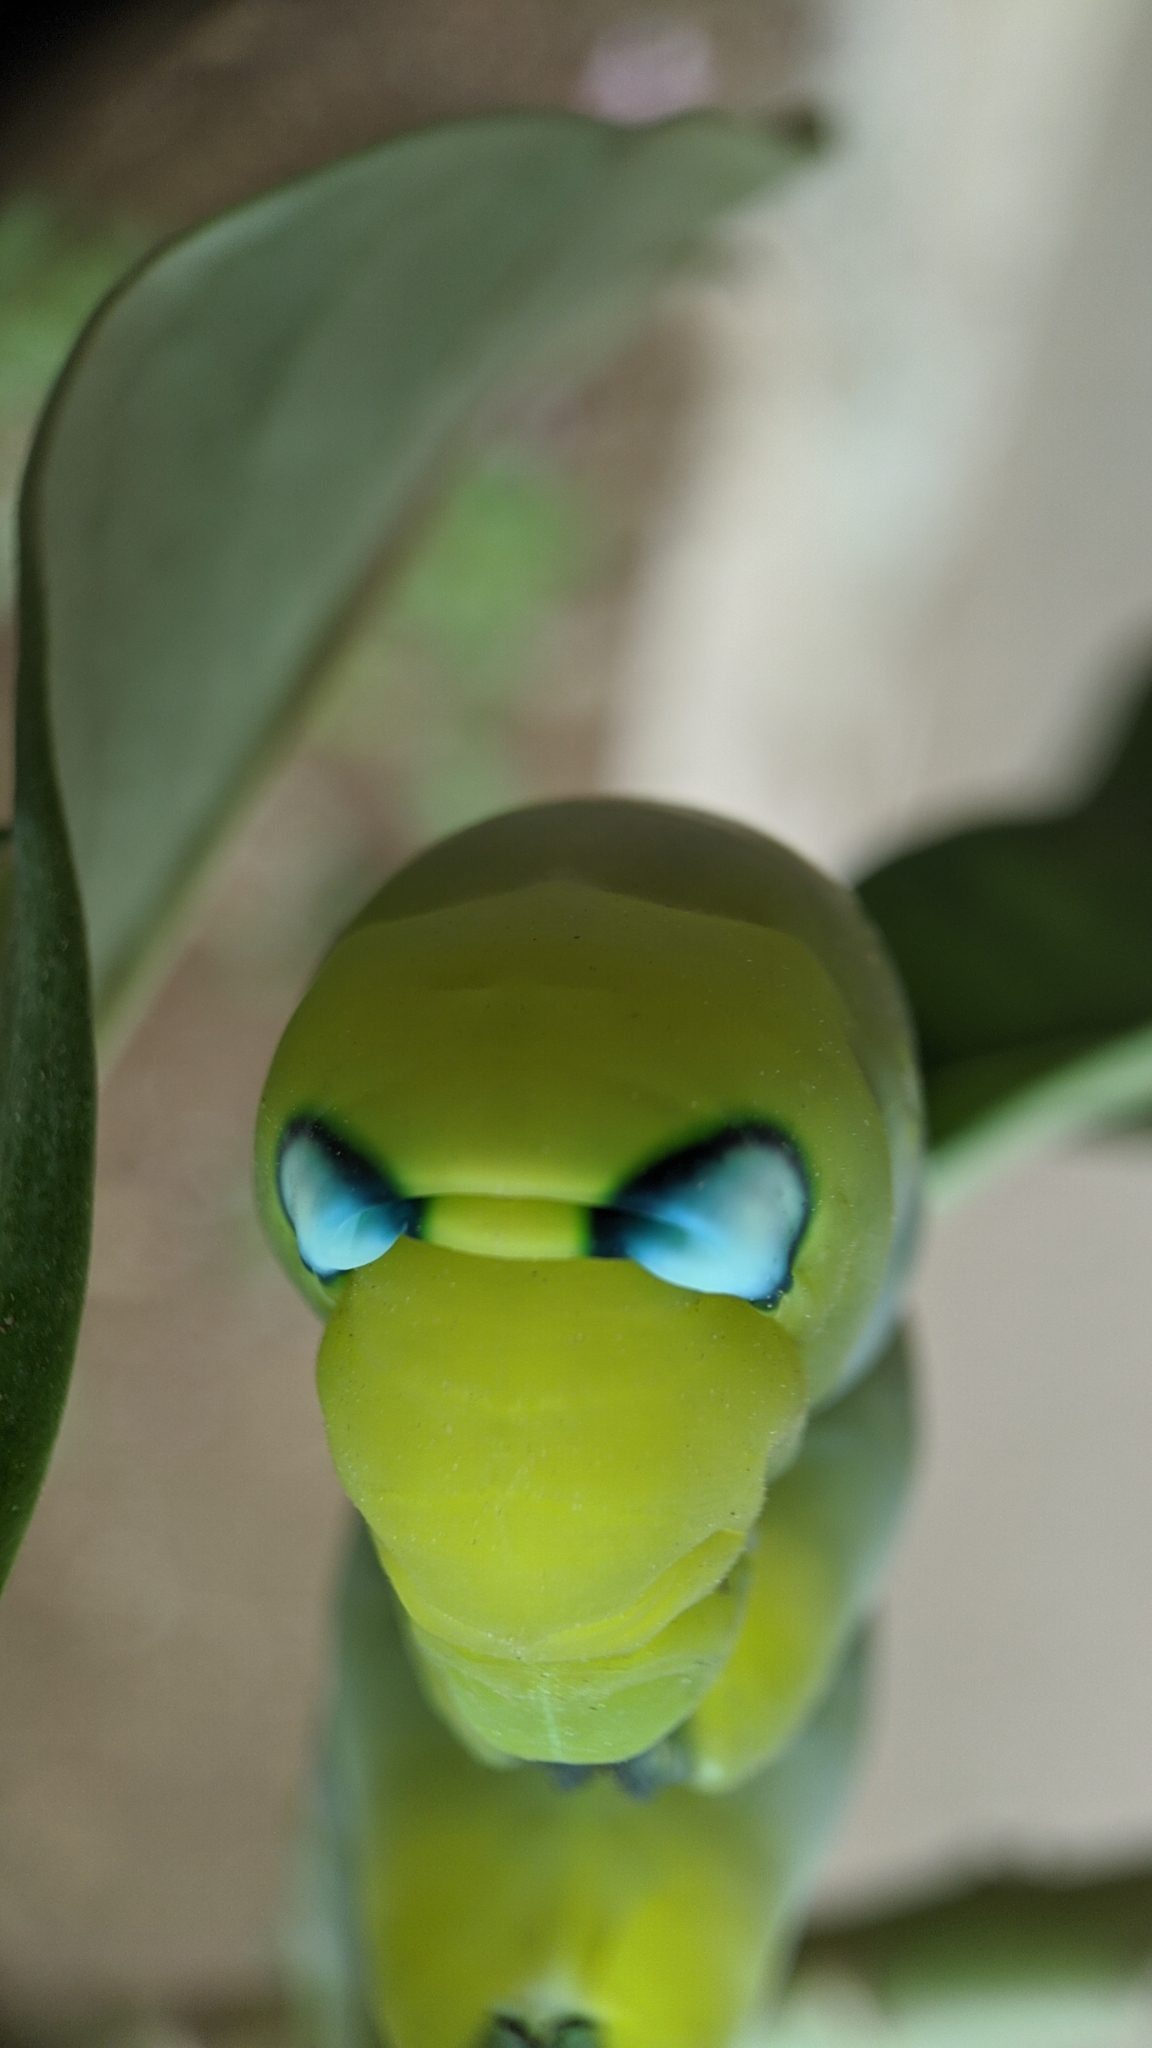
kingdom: Animalia
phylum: Arthropoda
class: Insecta
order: Lepidoptera
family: Sphingidae
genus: Daphnis
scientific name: Daphnis nerii
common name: Oleander hawk-moth
